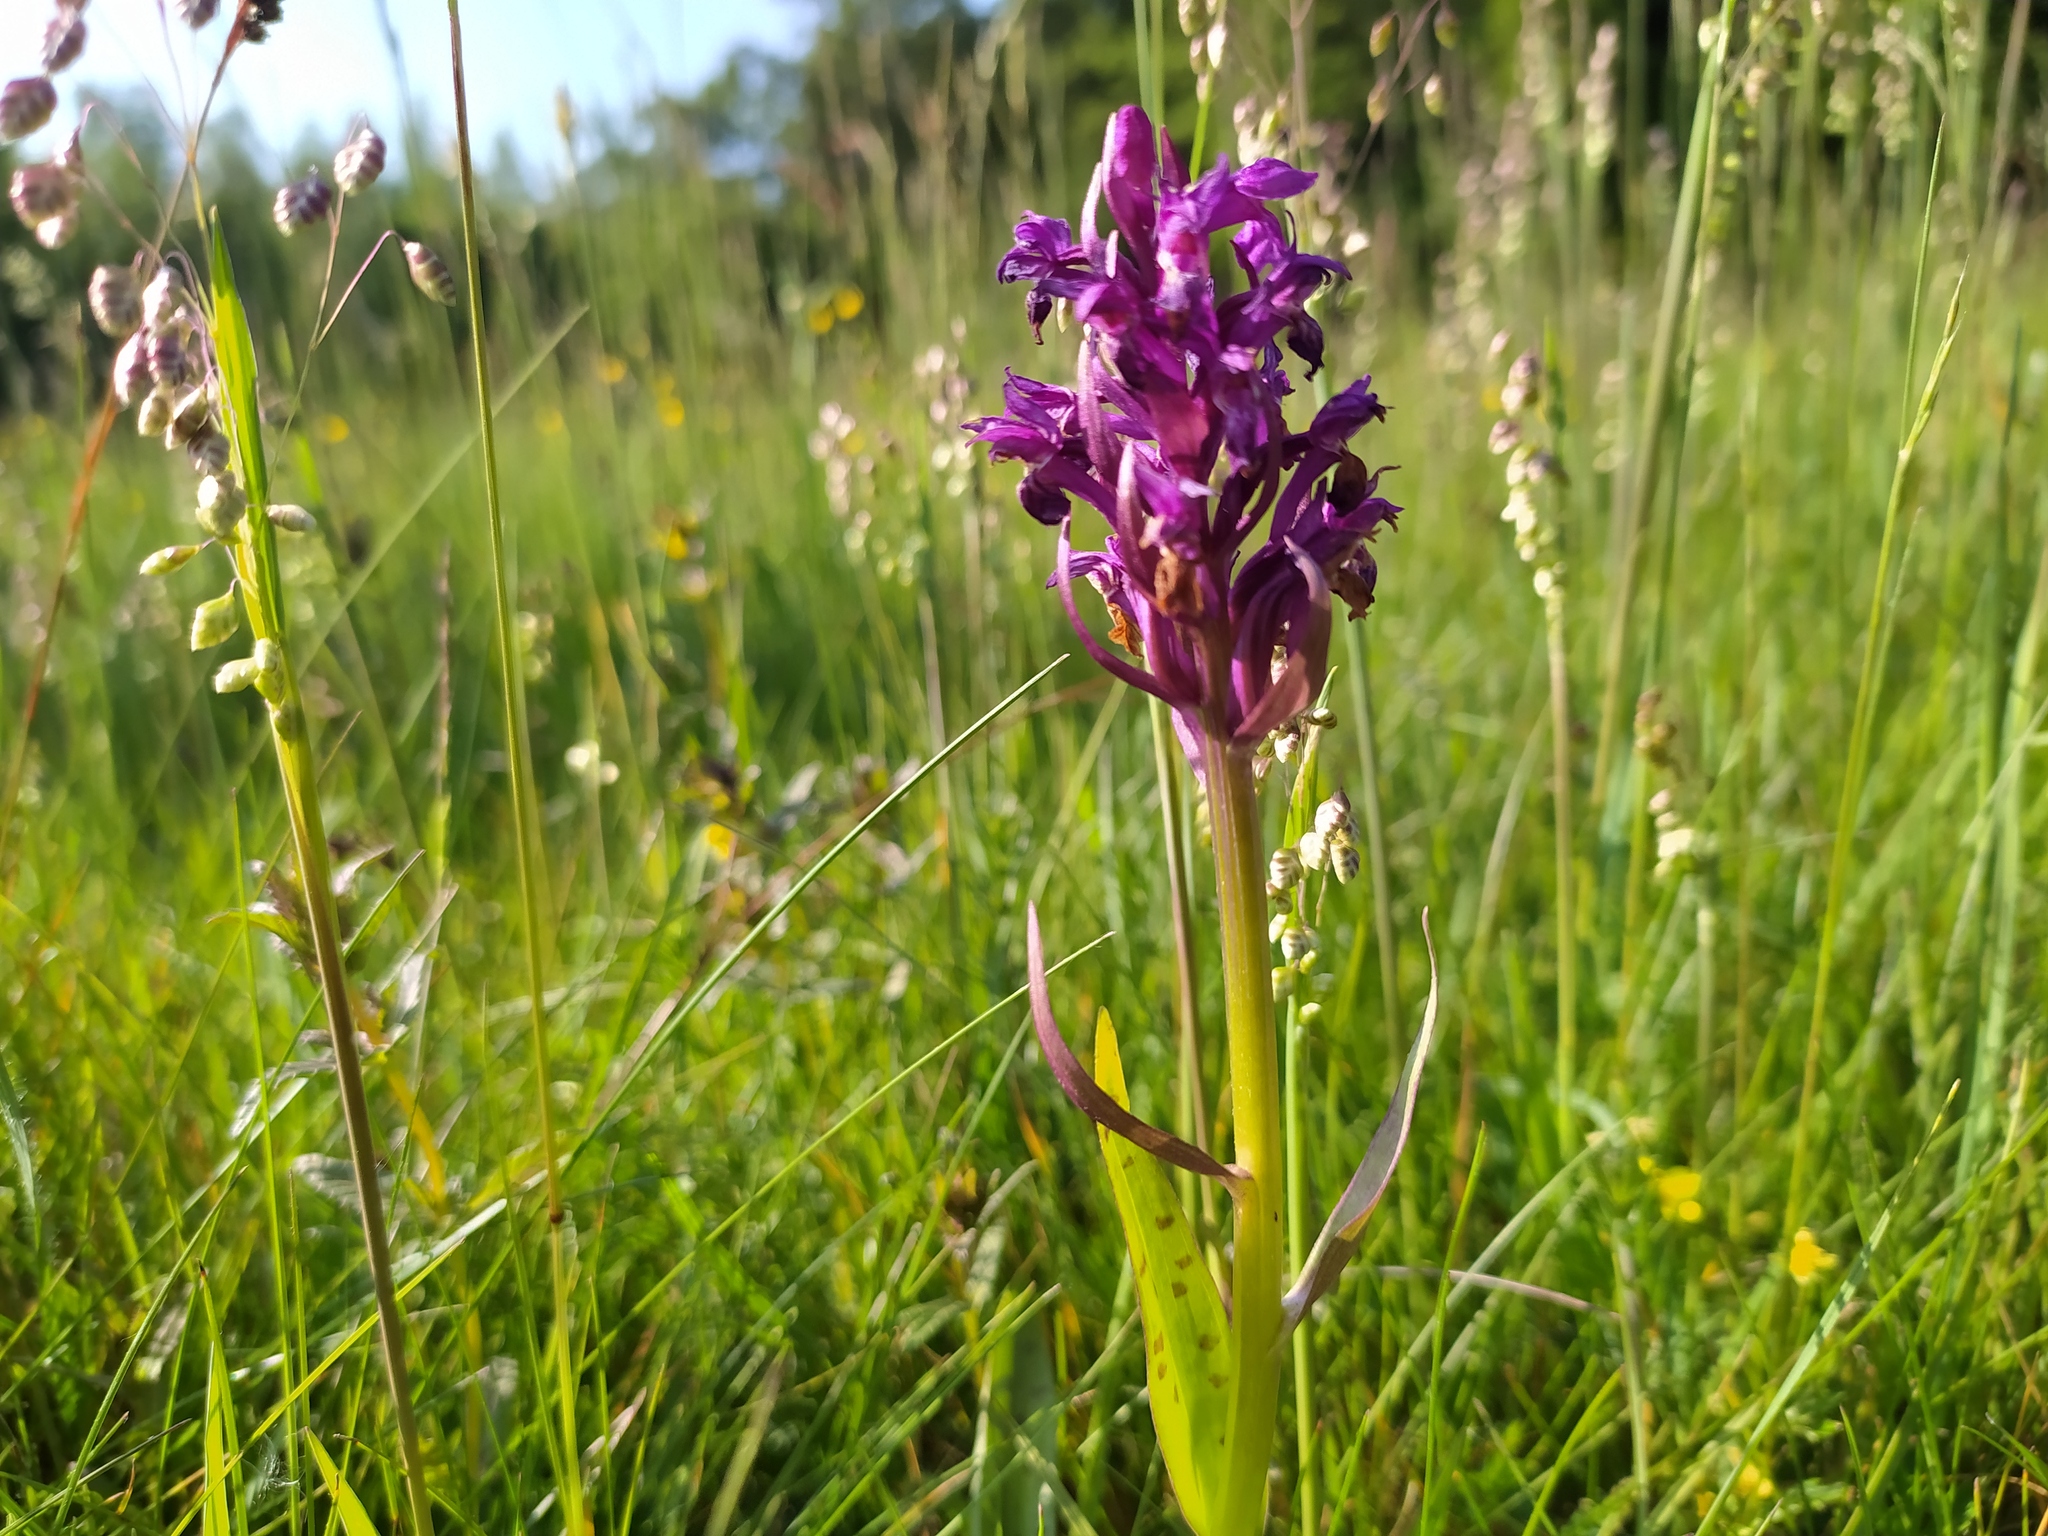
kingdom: Plantae
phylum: Tracheophyta
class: Liliopsida
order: Asparagales
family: Orchidaceae
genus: Dactylorhiza
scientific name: Dactylorhiza majalis
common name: Marsh orchid
